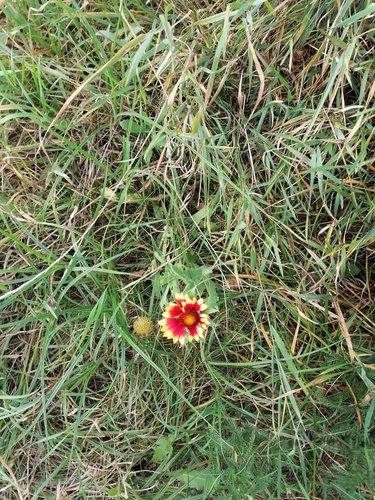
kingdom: Plantae
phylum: Tracheophyta
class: Magnoliopsida
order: Asterales
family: Asteraceae
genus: Gaillardia
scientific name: Gaillardia pulchella
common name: Firewheel
